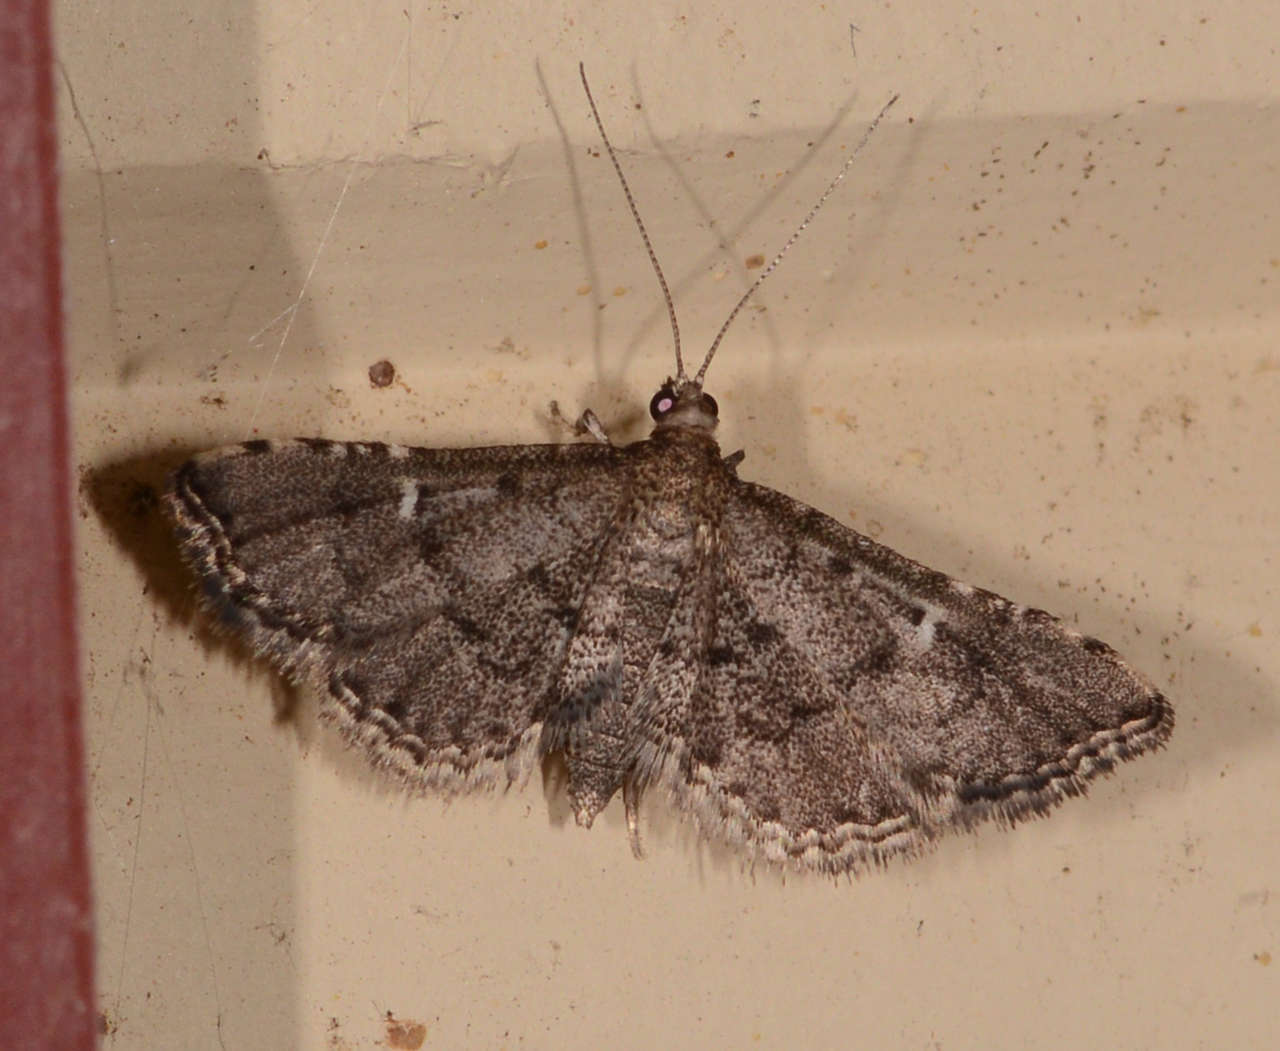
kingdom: Animalia
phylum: Arthropoda
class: Insecta
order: Lepidoptera
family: Crambidae
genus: Metasia
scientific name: Metasia capnochroa
